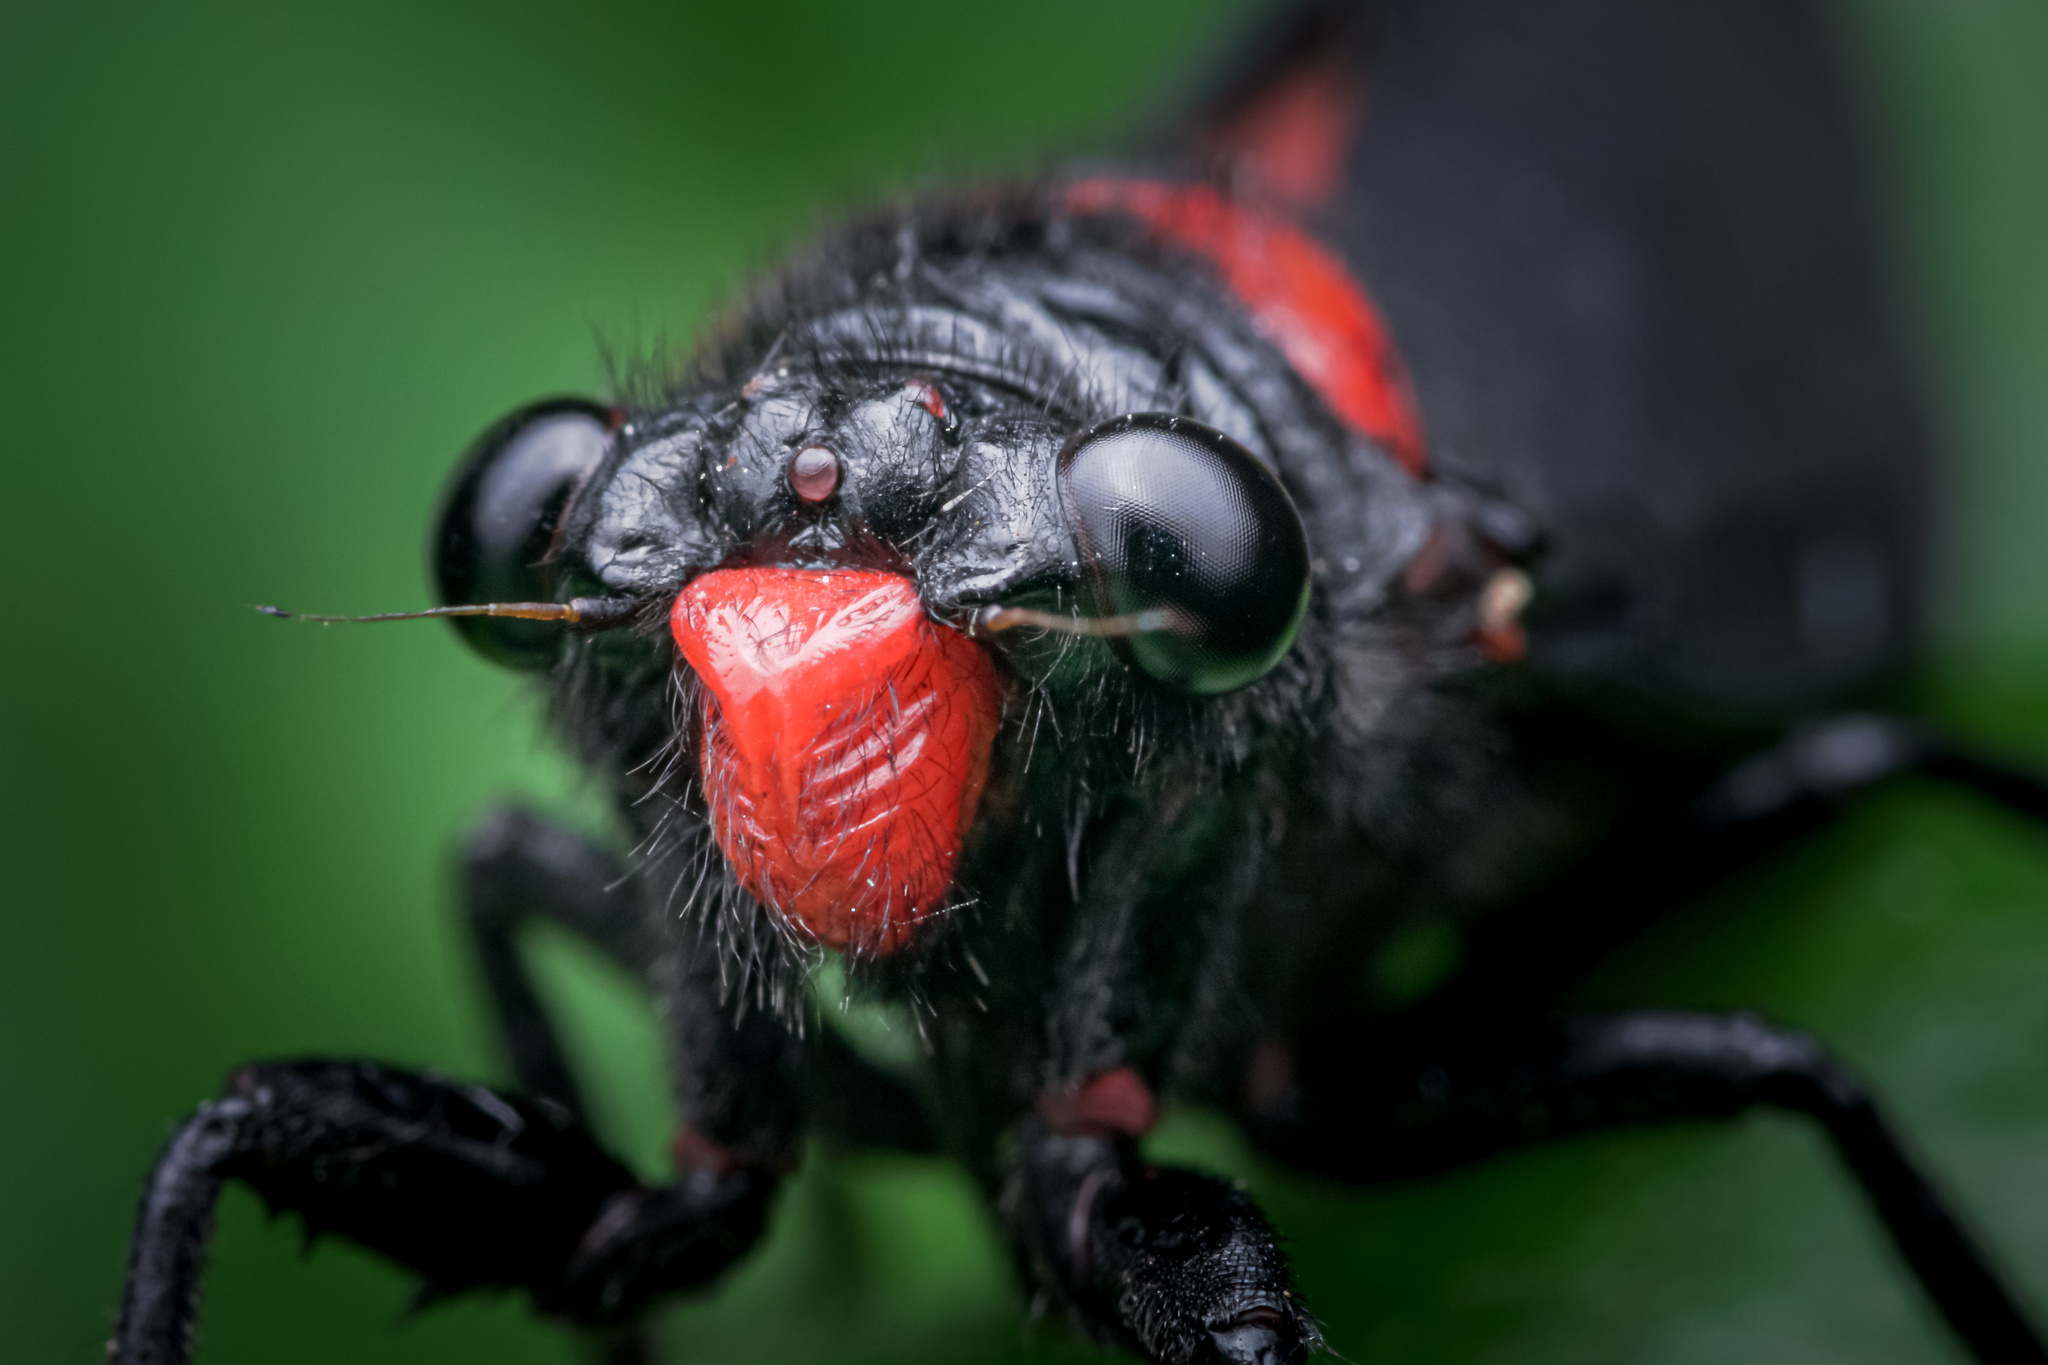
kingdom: Animalia
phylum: Arthropoda
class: Insecta
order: Hemiptera
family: Cicadidae
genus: Huechys
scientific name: Huechys sanguinea
